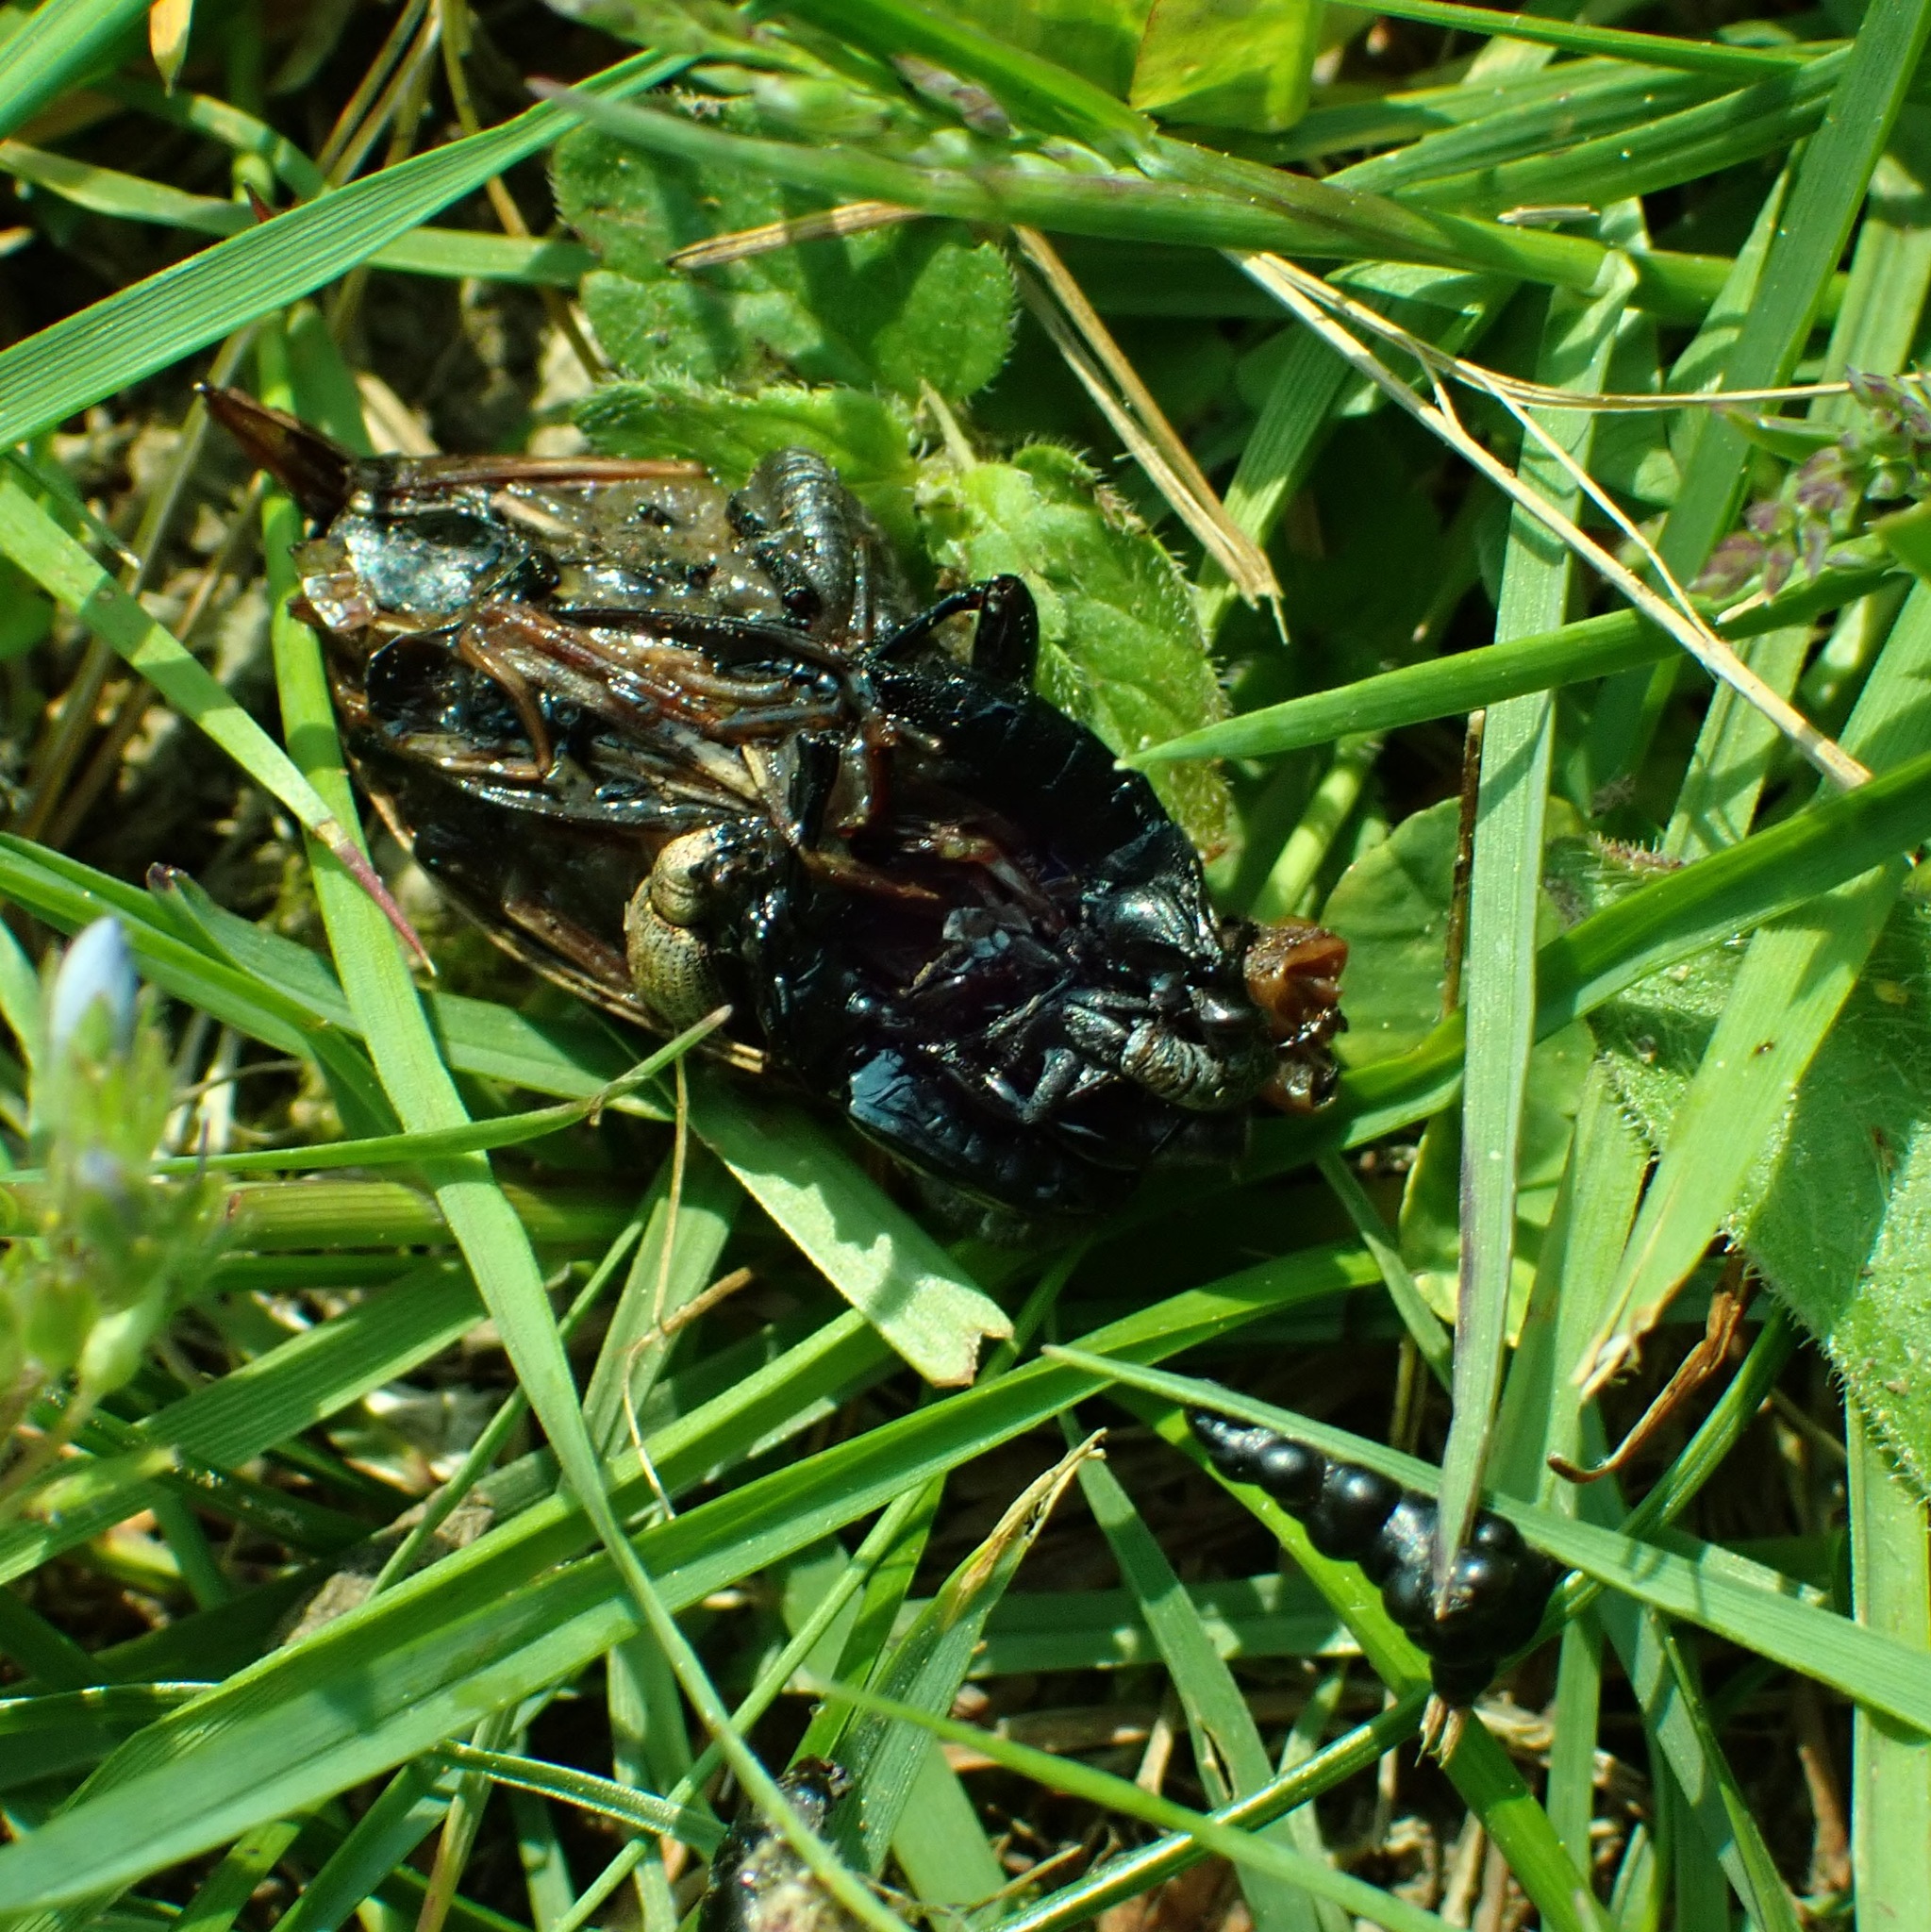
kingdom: Animalia
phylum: Arthropoda
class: Insecta
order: Coleoptera
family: Carabidae
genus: Carabus
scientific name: Carabus nemoralis
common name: European ground beetle
